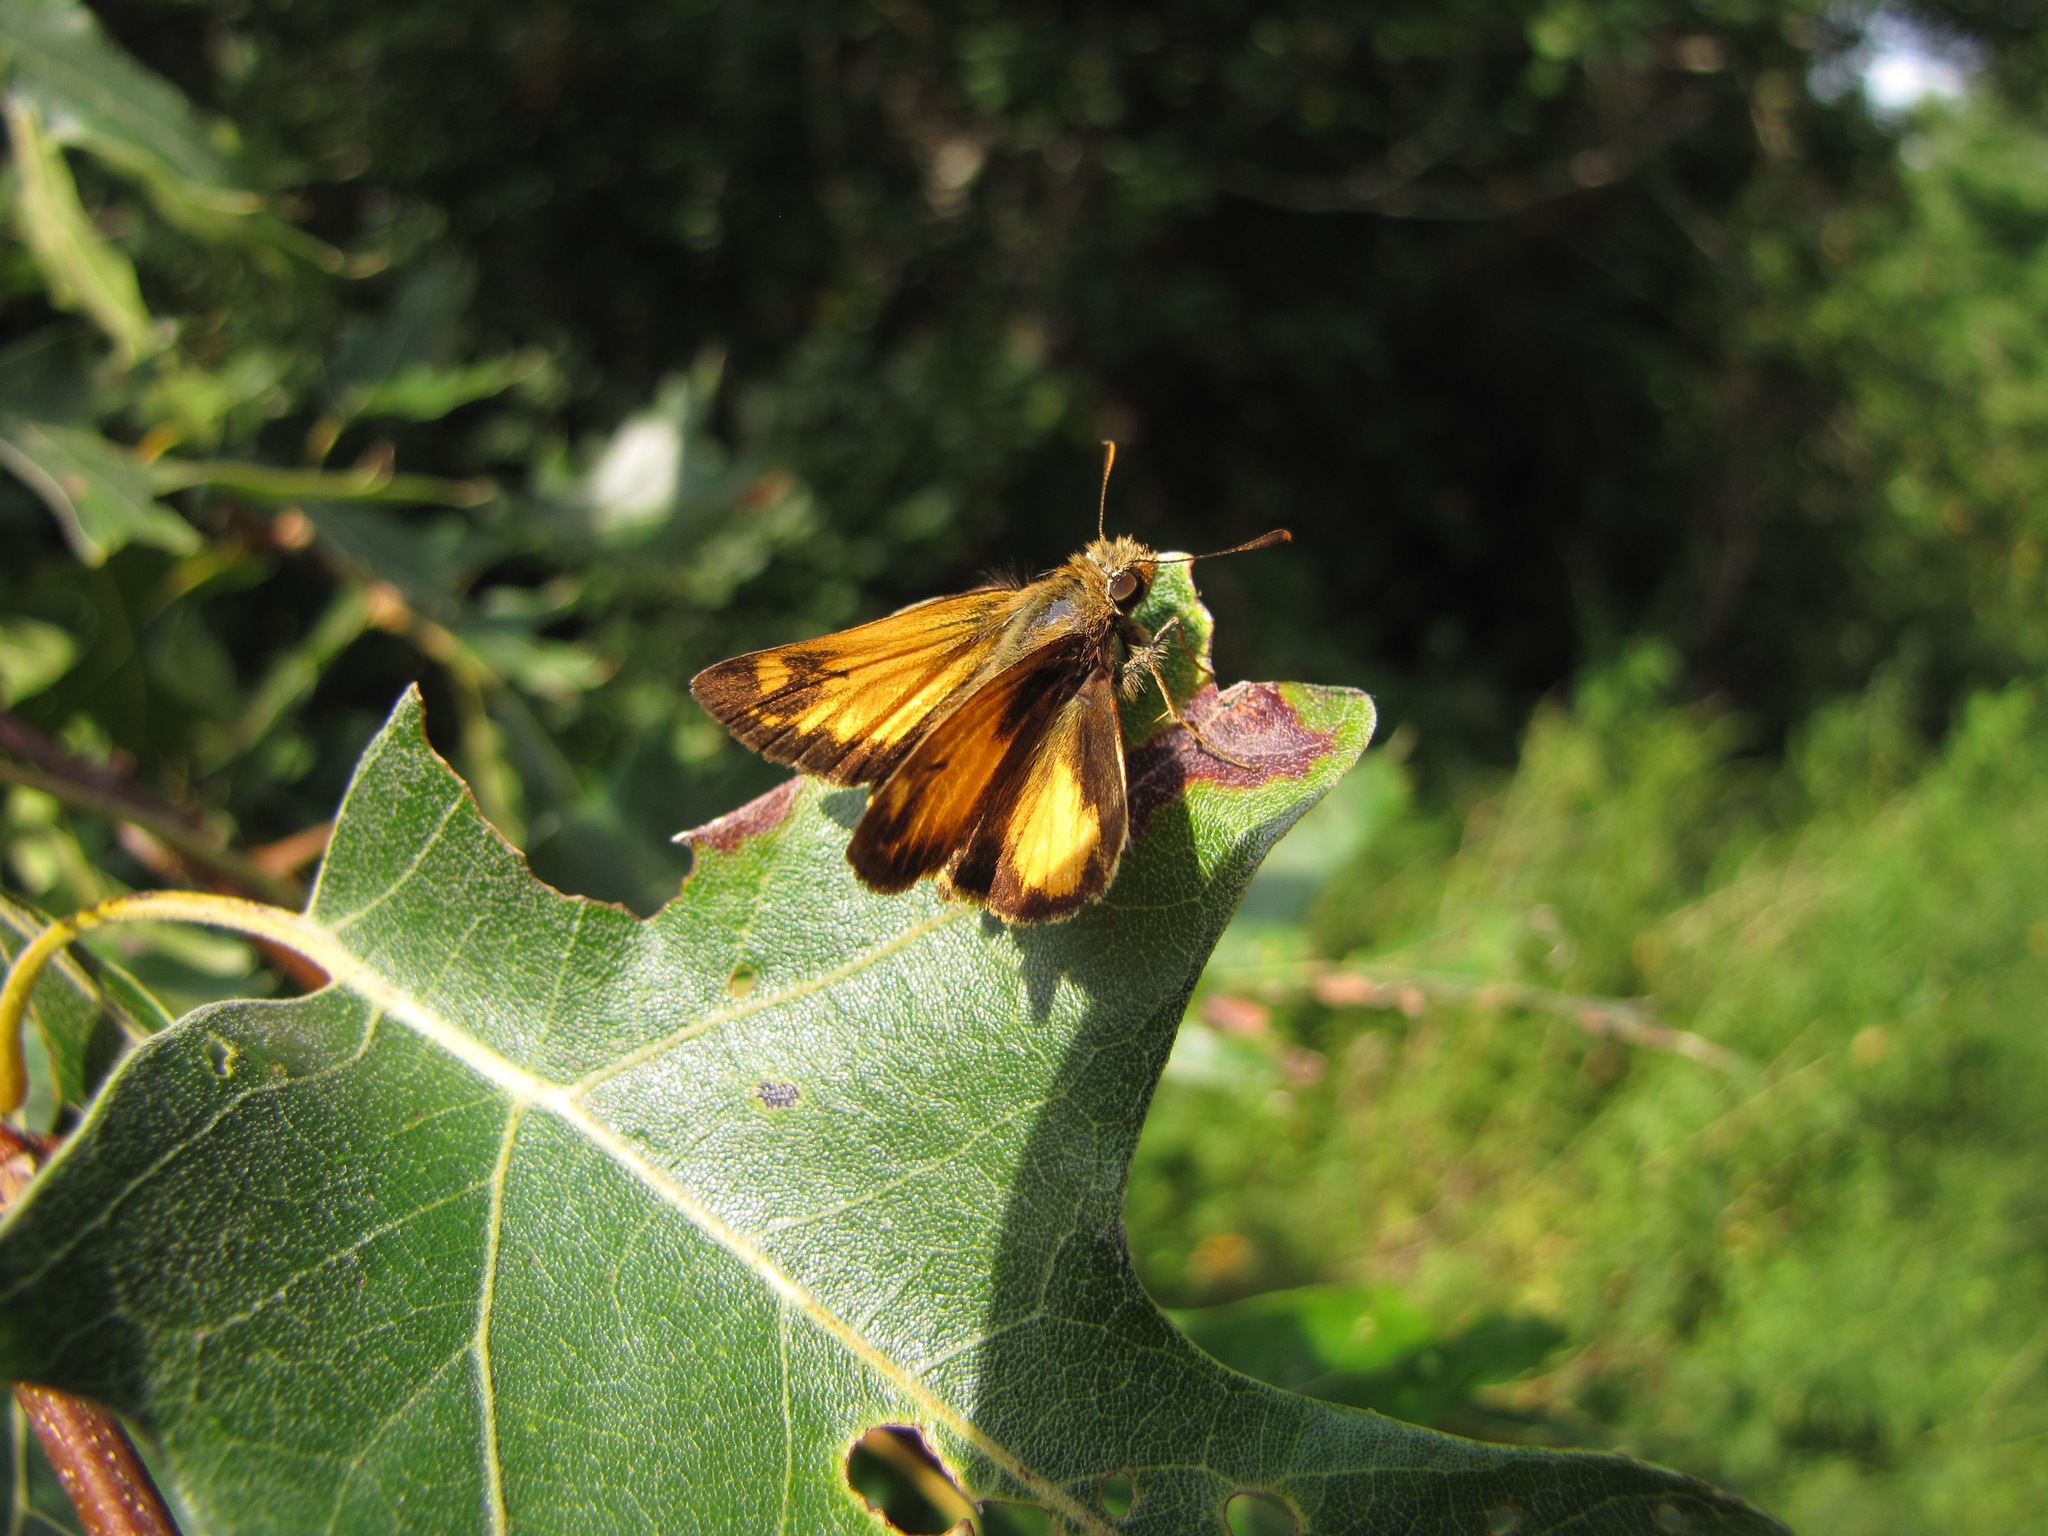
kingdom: Animalia
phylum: Arthropoda
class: Insecta
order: Lepidoptera
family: Hesperiidae
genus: Lon
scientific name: Lon zabulon
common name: Zabulon skipper
